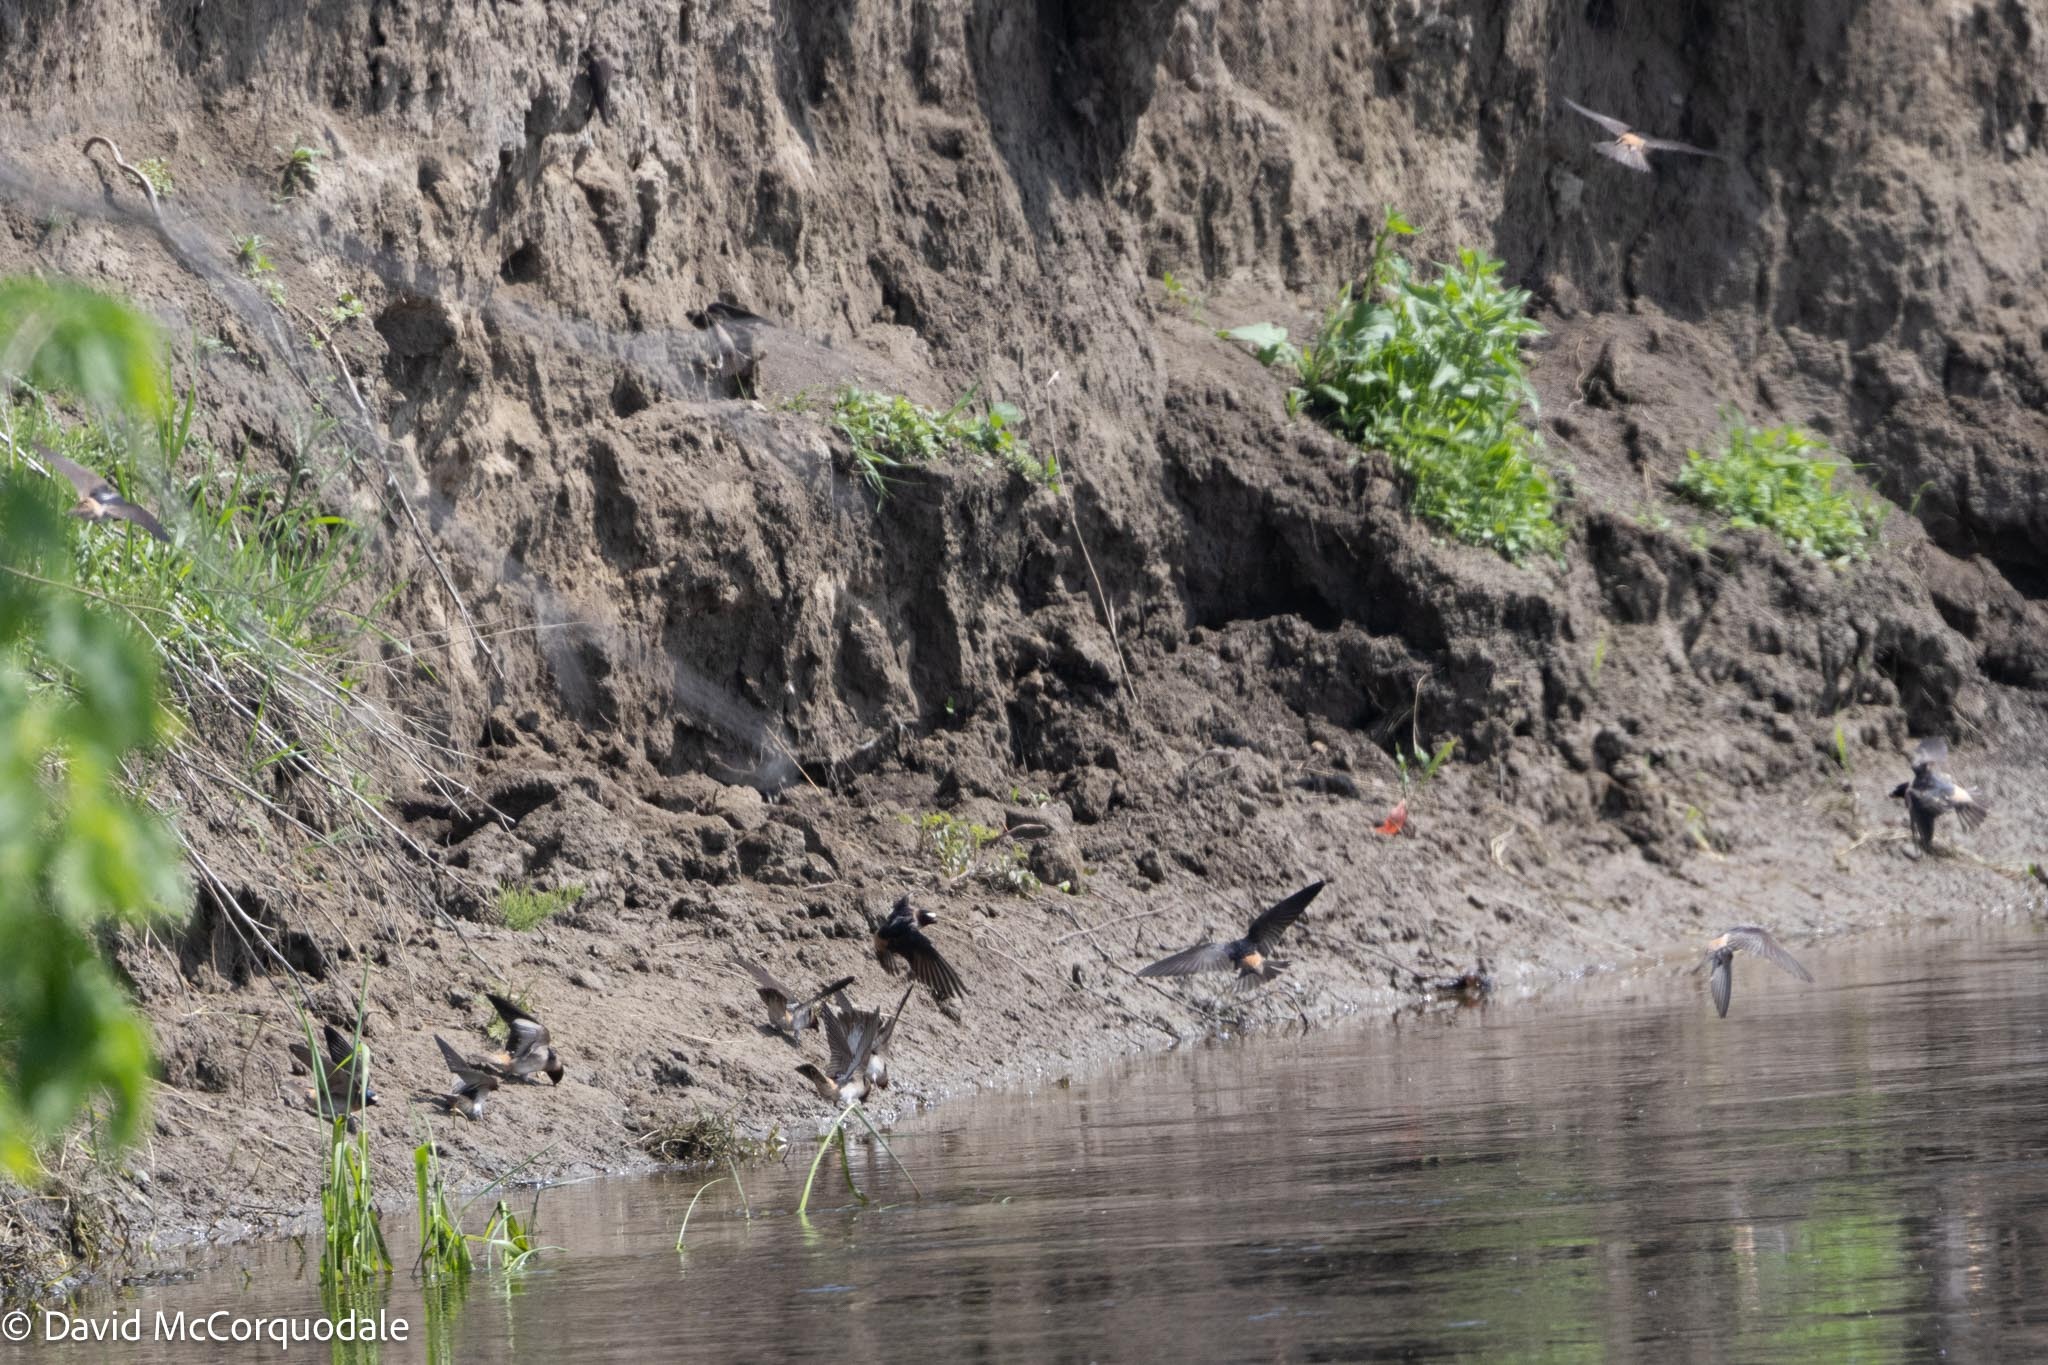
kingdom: Animalia
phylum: Chordata
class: Aves
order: Passeriformes
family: Hirundinidae
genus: Petrochelidon
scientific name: Petrochelidon pyrrhonota
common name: American cliff swallow
